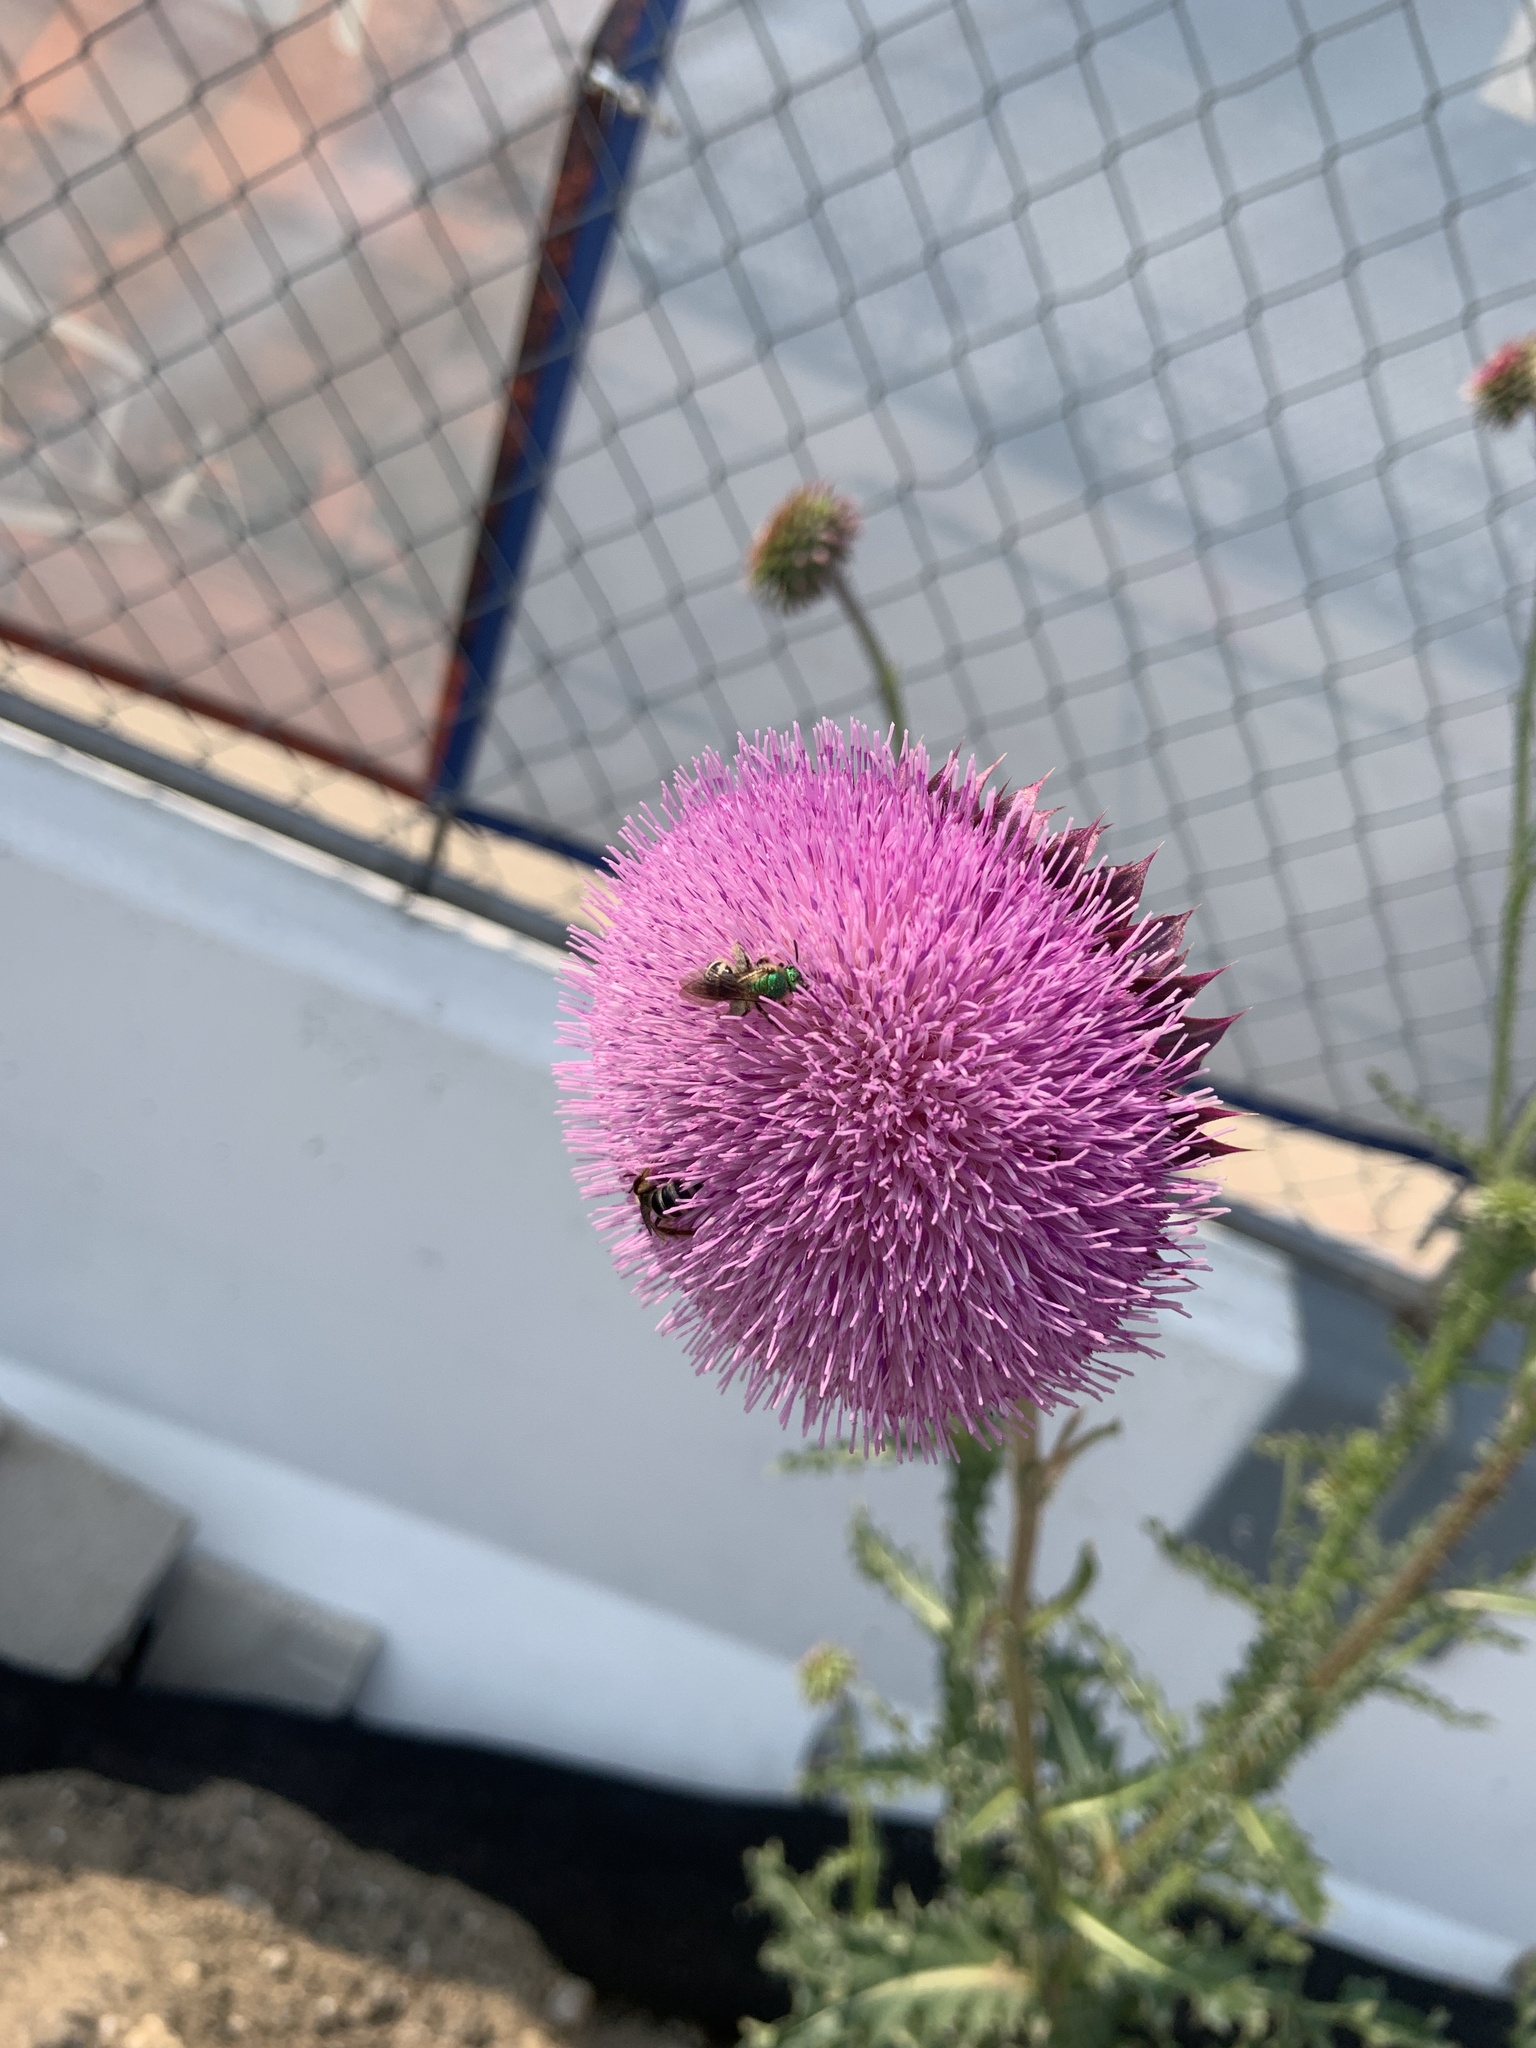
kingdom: Animalia
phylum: Arthropoda
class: Insecta
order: Hymenoptera
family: Halictidae
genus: Agapostemon
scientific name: Agapostemon virescens
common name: Bicolored striped sweat bee
